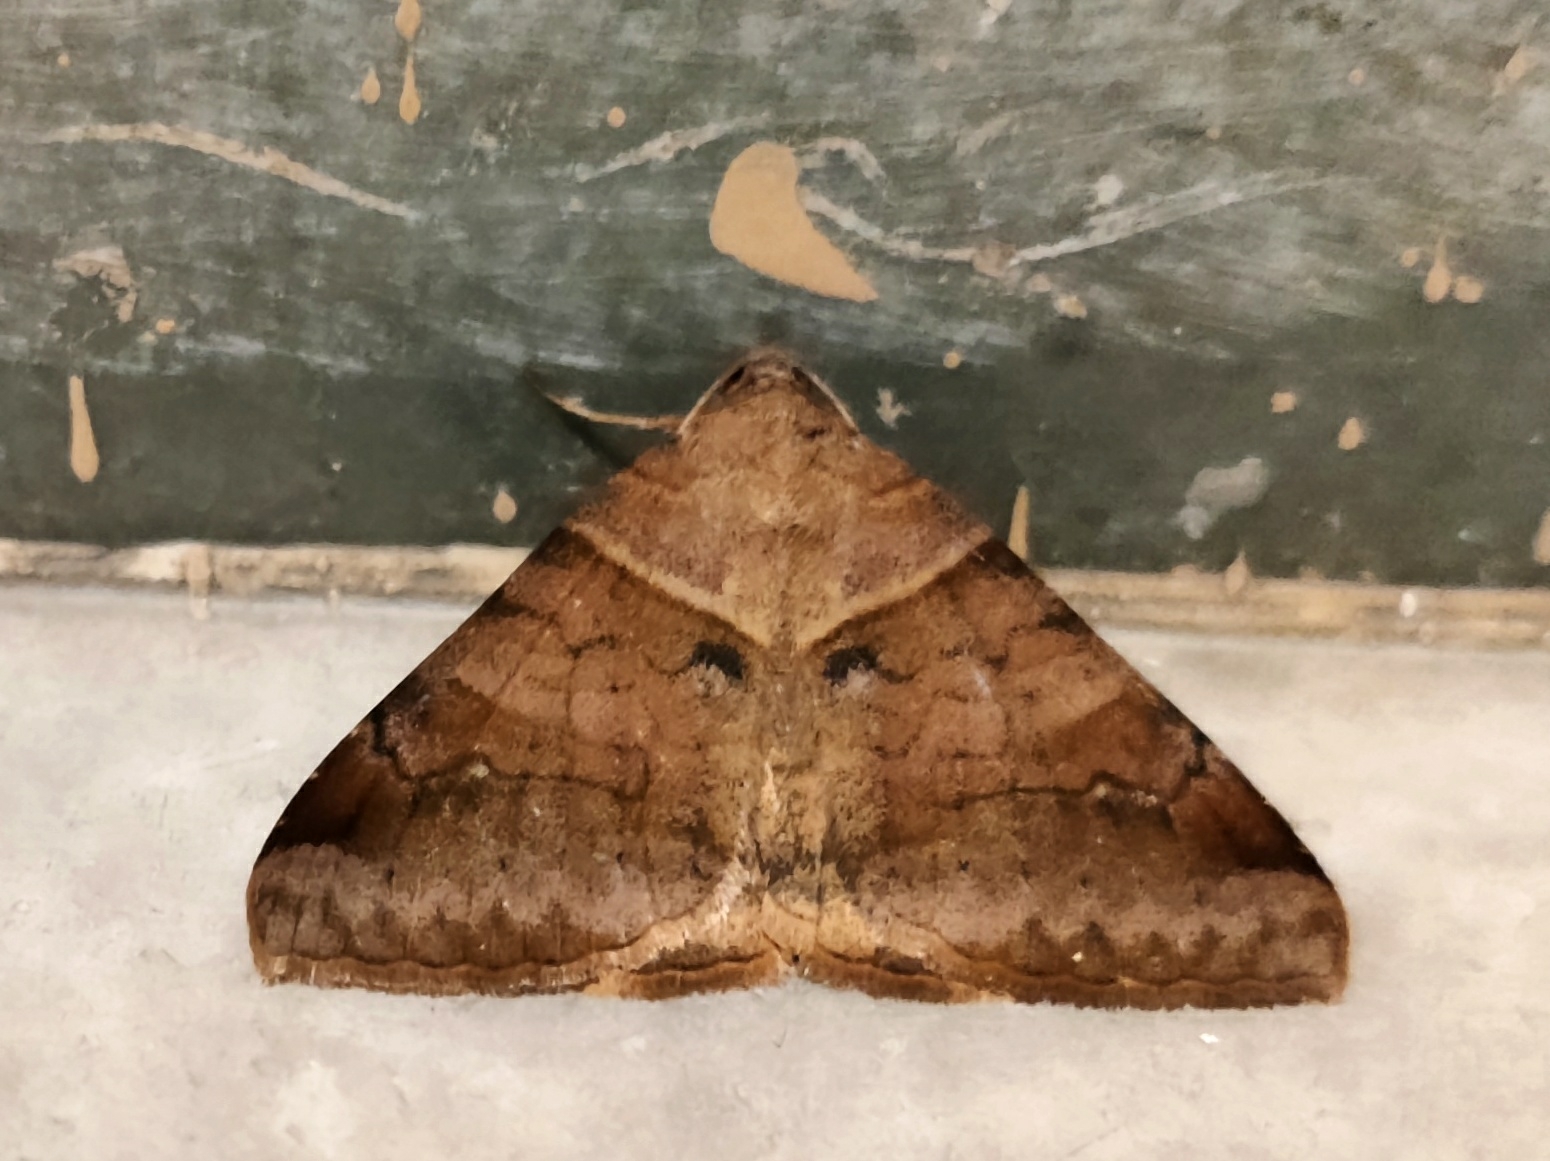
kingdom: Animalia
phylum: Arthropoda
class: Insecta
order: Lepidoptera
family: Erebidae
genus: Mocis
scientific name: Mocis undata
